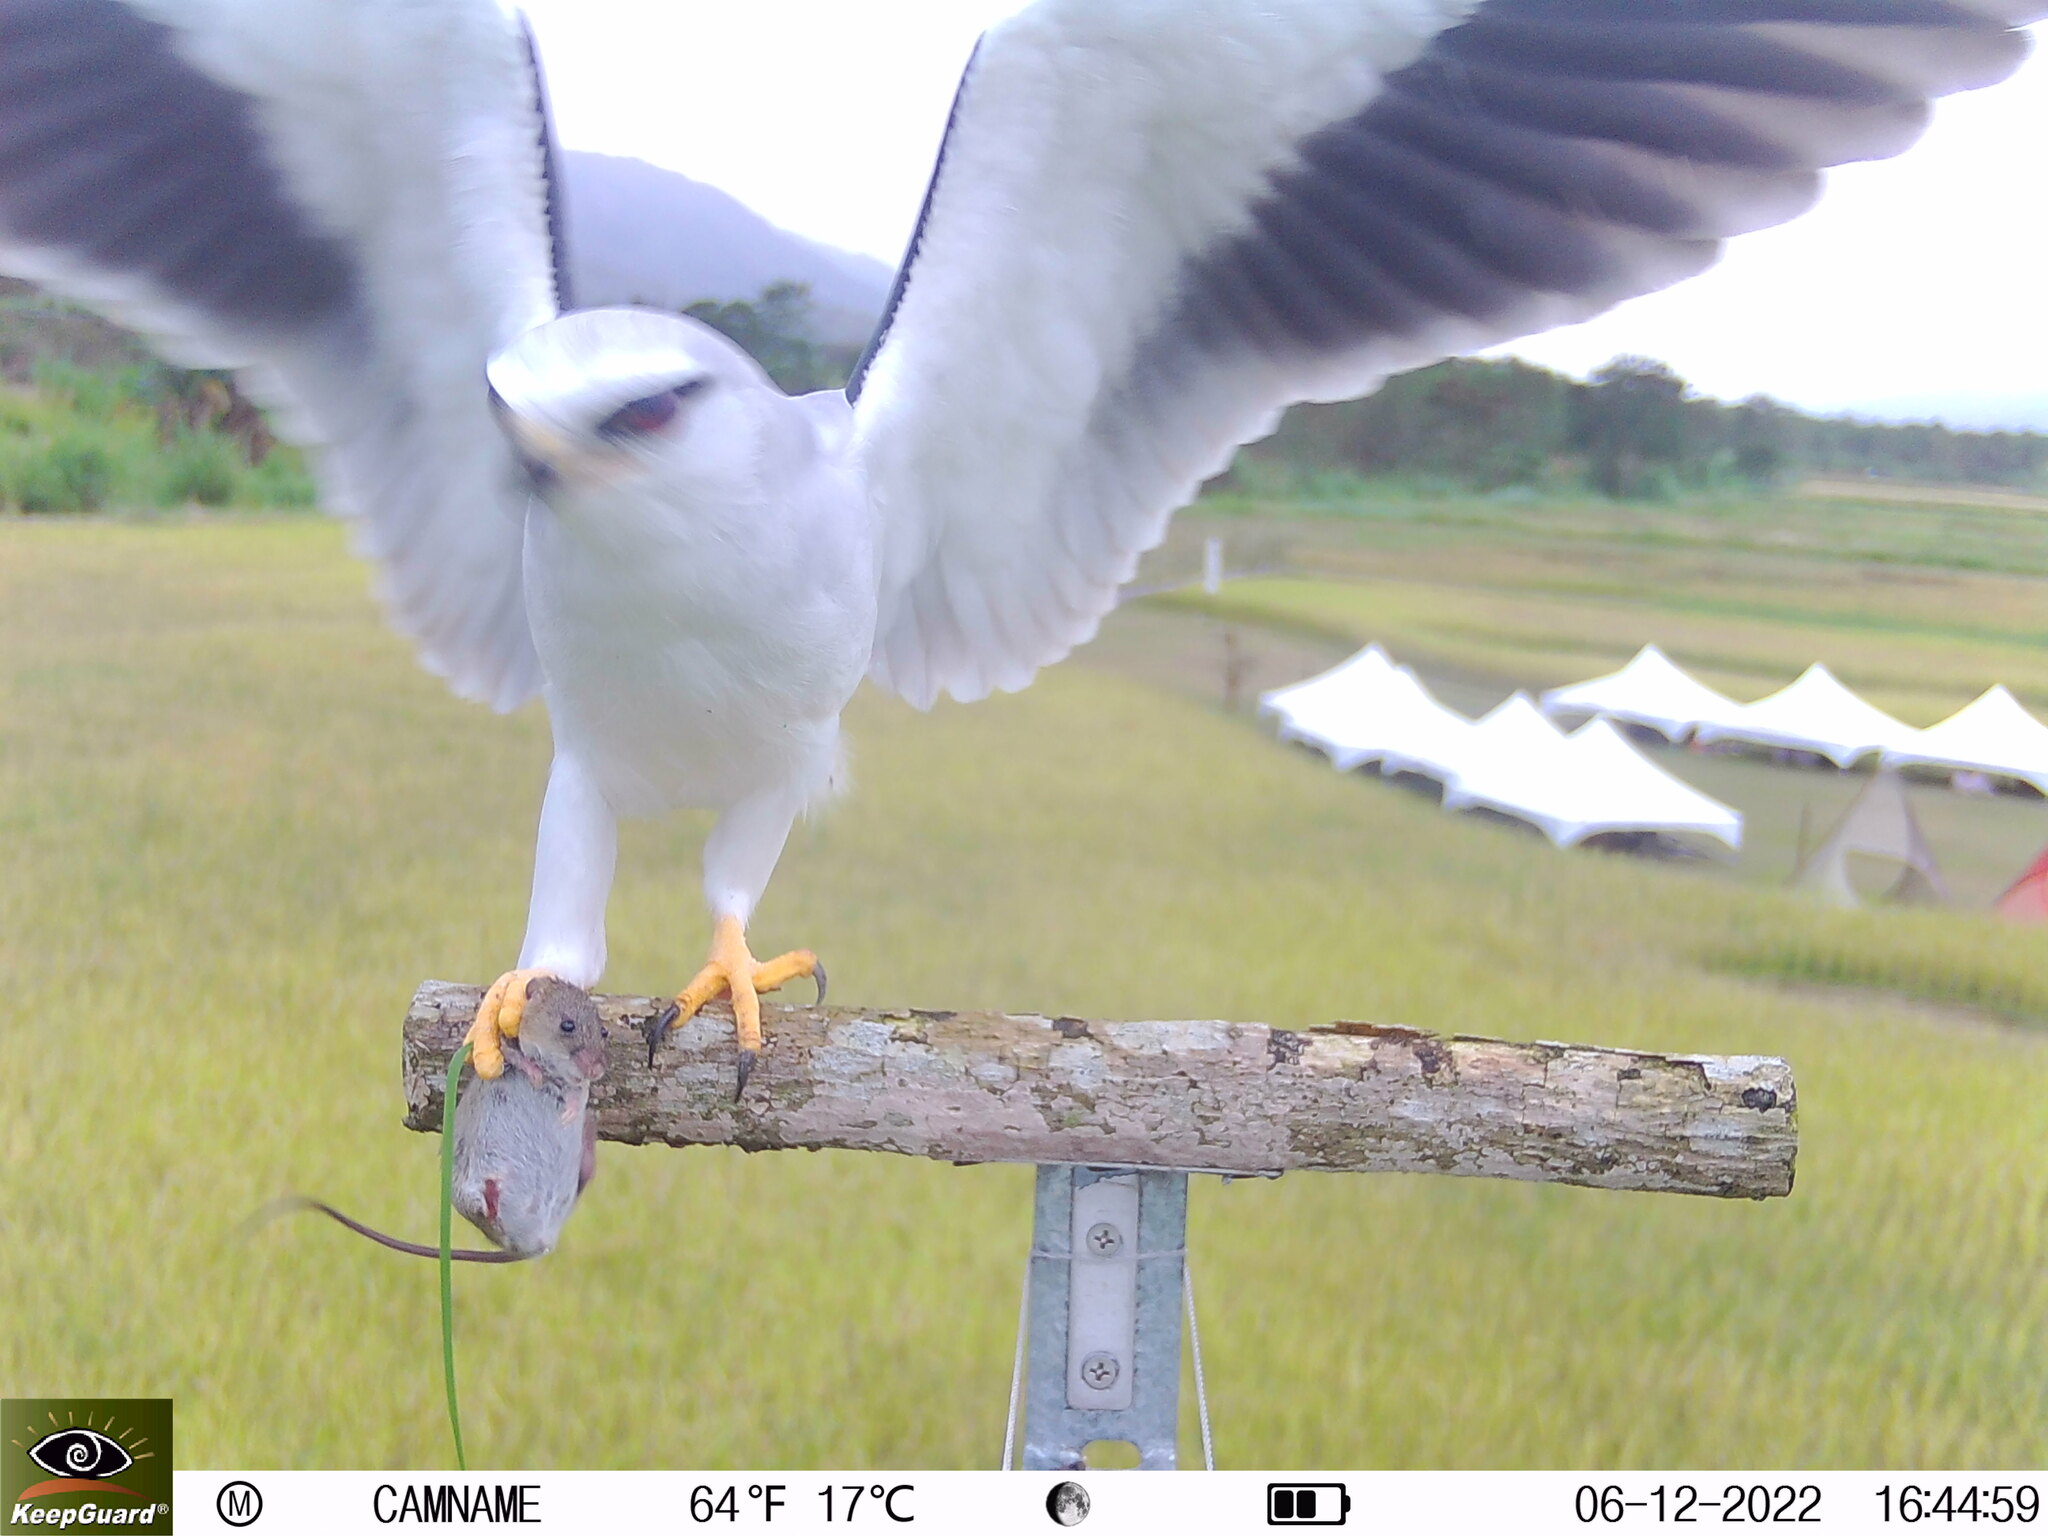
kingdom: Animalia
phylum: Chordata
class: Aves
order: Accipitriformes
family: Accipitridae
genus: Elanus
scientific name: Elanus caeruleus
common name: Black-winged kite
